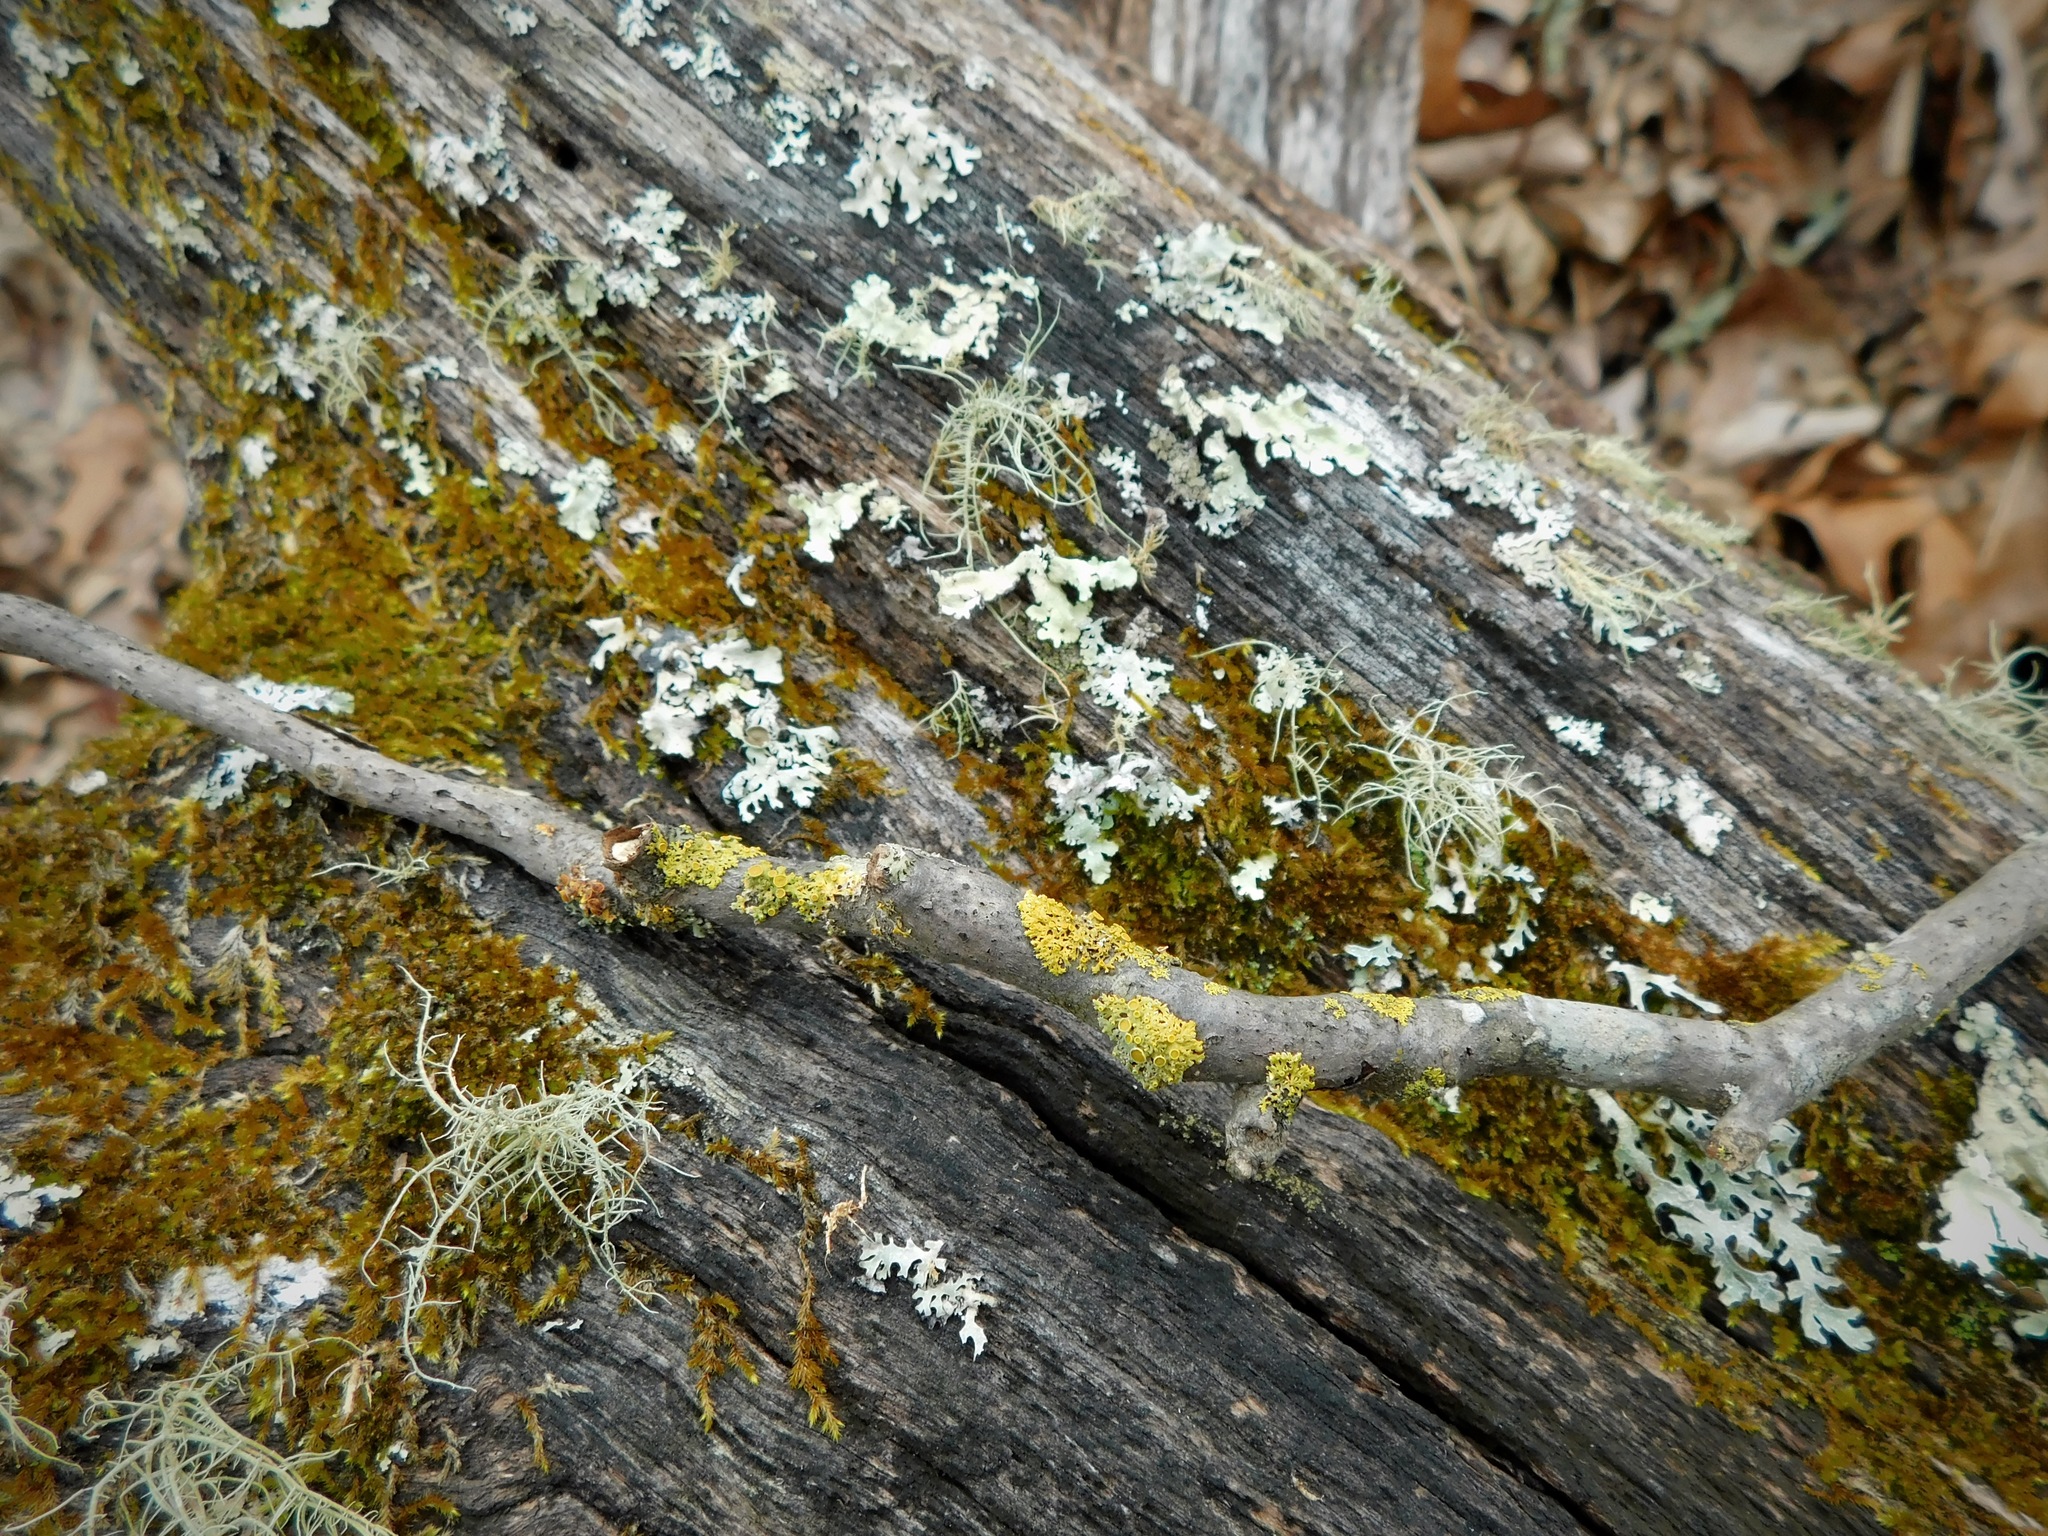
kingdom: Fungi
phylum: Ascomycota
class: Lecanoromycetes
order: Teloschistales
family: Teloschistaceae
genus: Gallowayella
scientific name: Gallowayella hasseana
